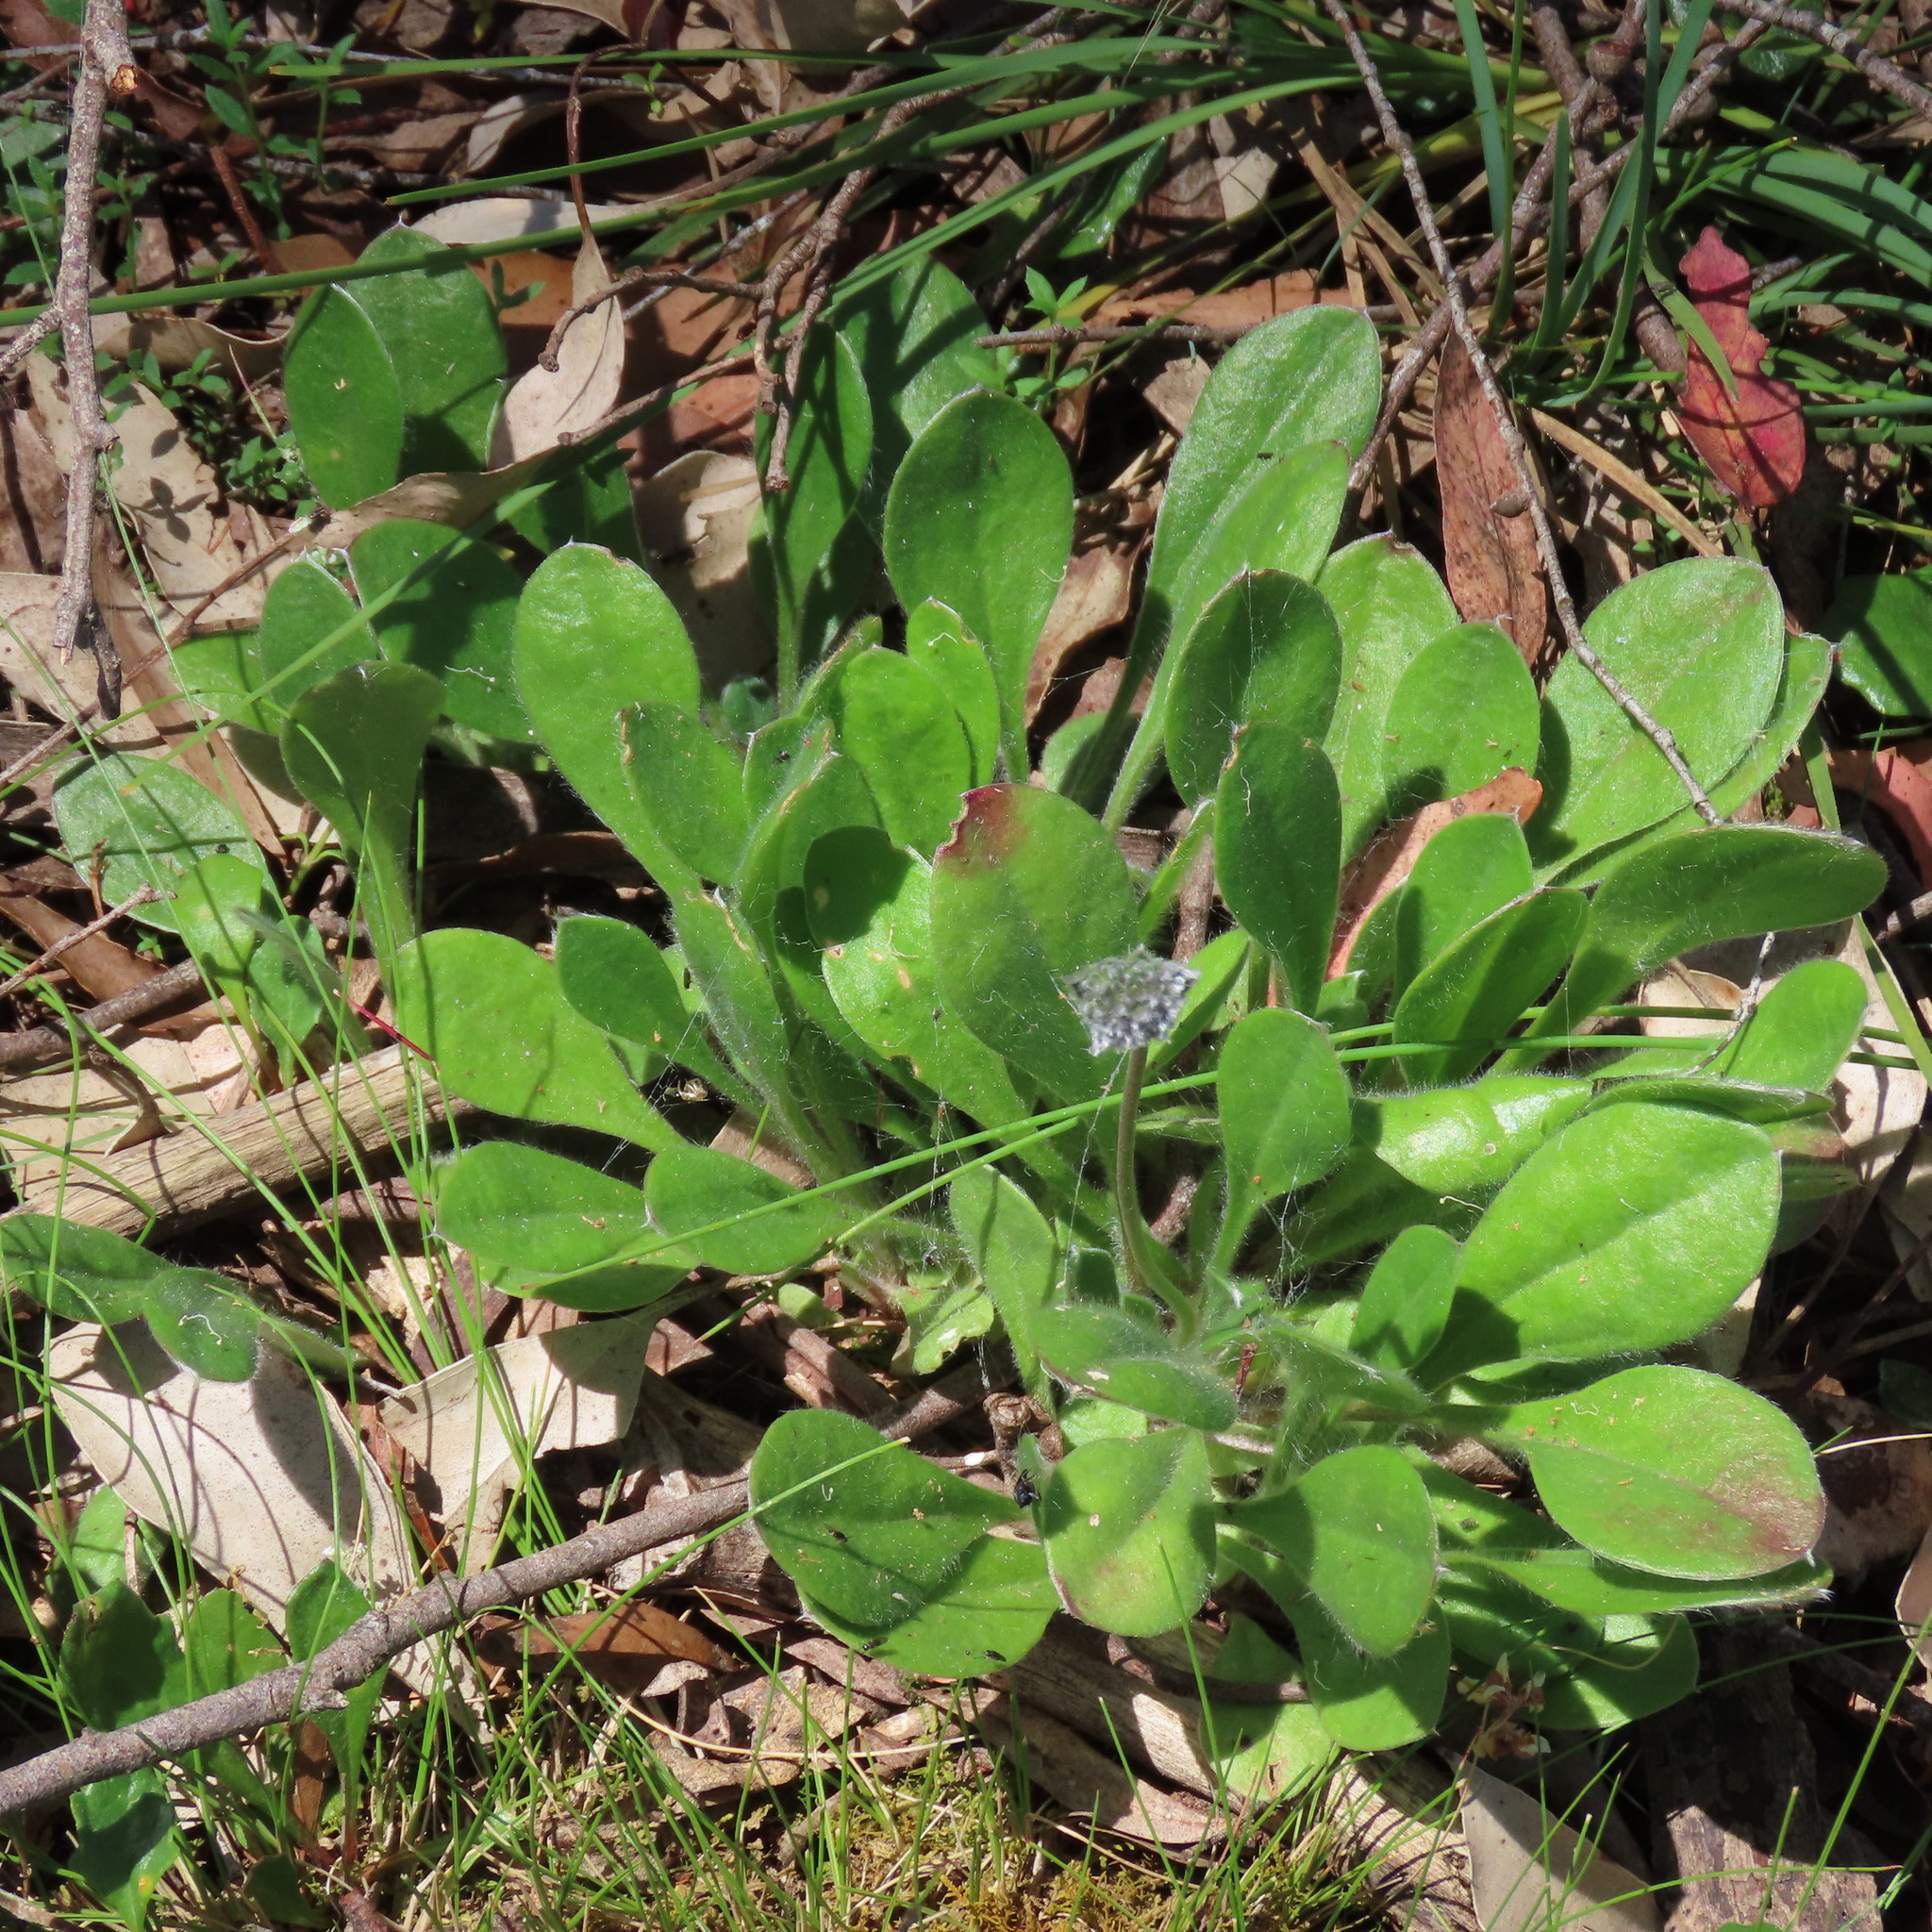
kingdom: Plantae
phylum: Tracheophyta
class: Magnoliopsida
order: Asterales
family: Goodeniaceae
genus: Brunonia
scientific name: Brunonia australis
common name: Blue pincushion
